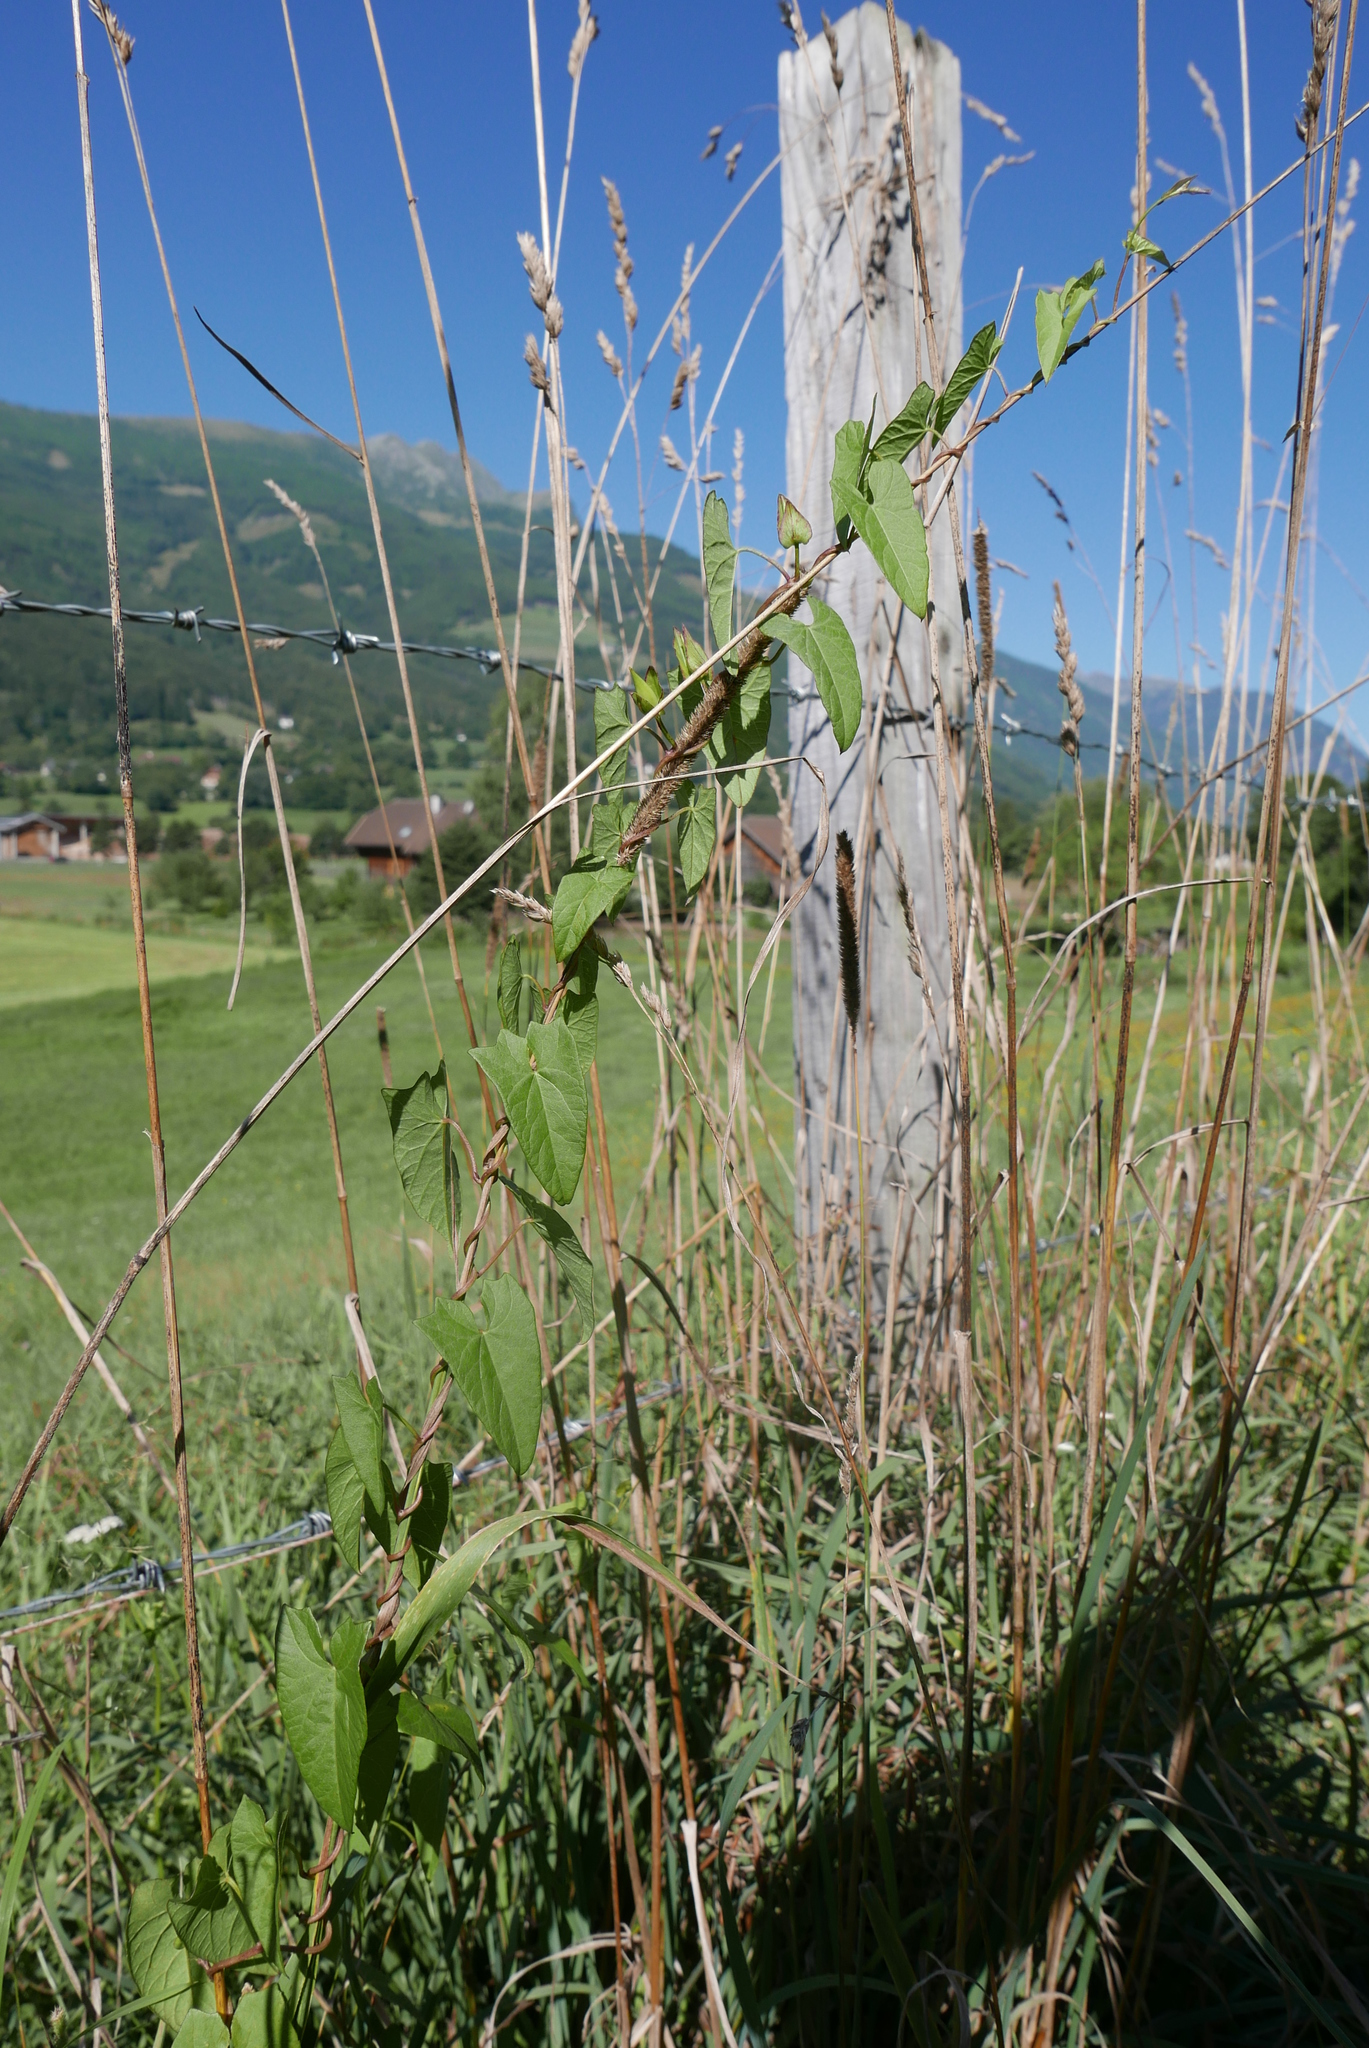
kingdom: Plantae
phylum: Tracheophyta
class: Magnoliopsida
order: Solanales
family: Convolvulaceae
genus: Calystegia
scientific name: Calystegia sepium
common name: Hedge bindweed
